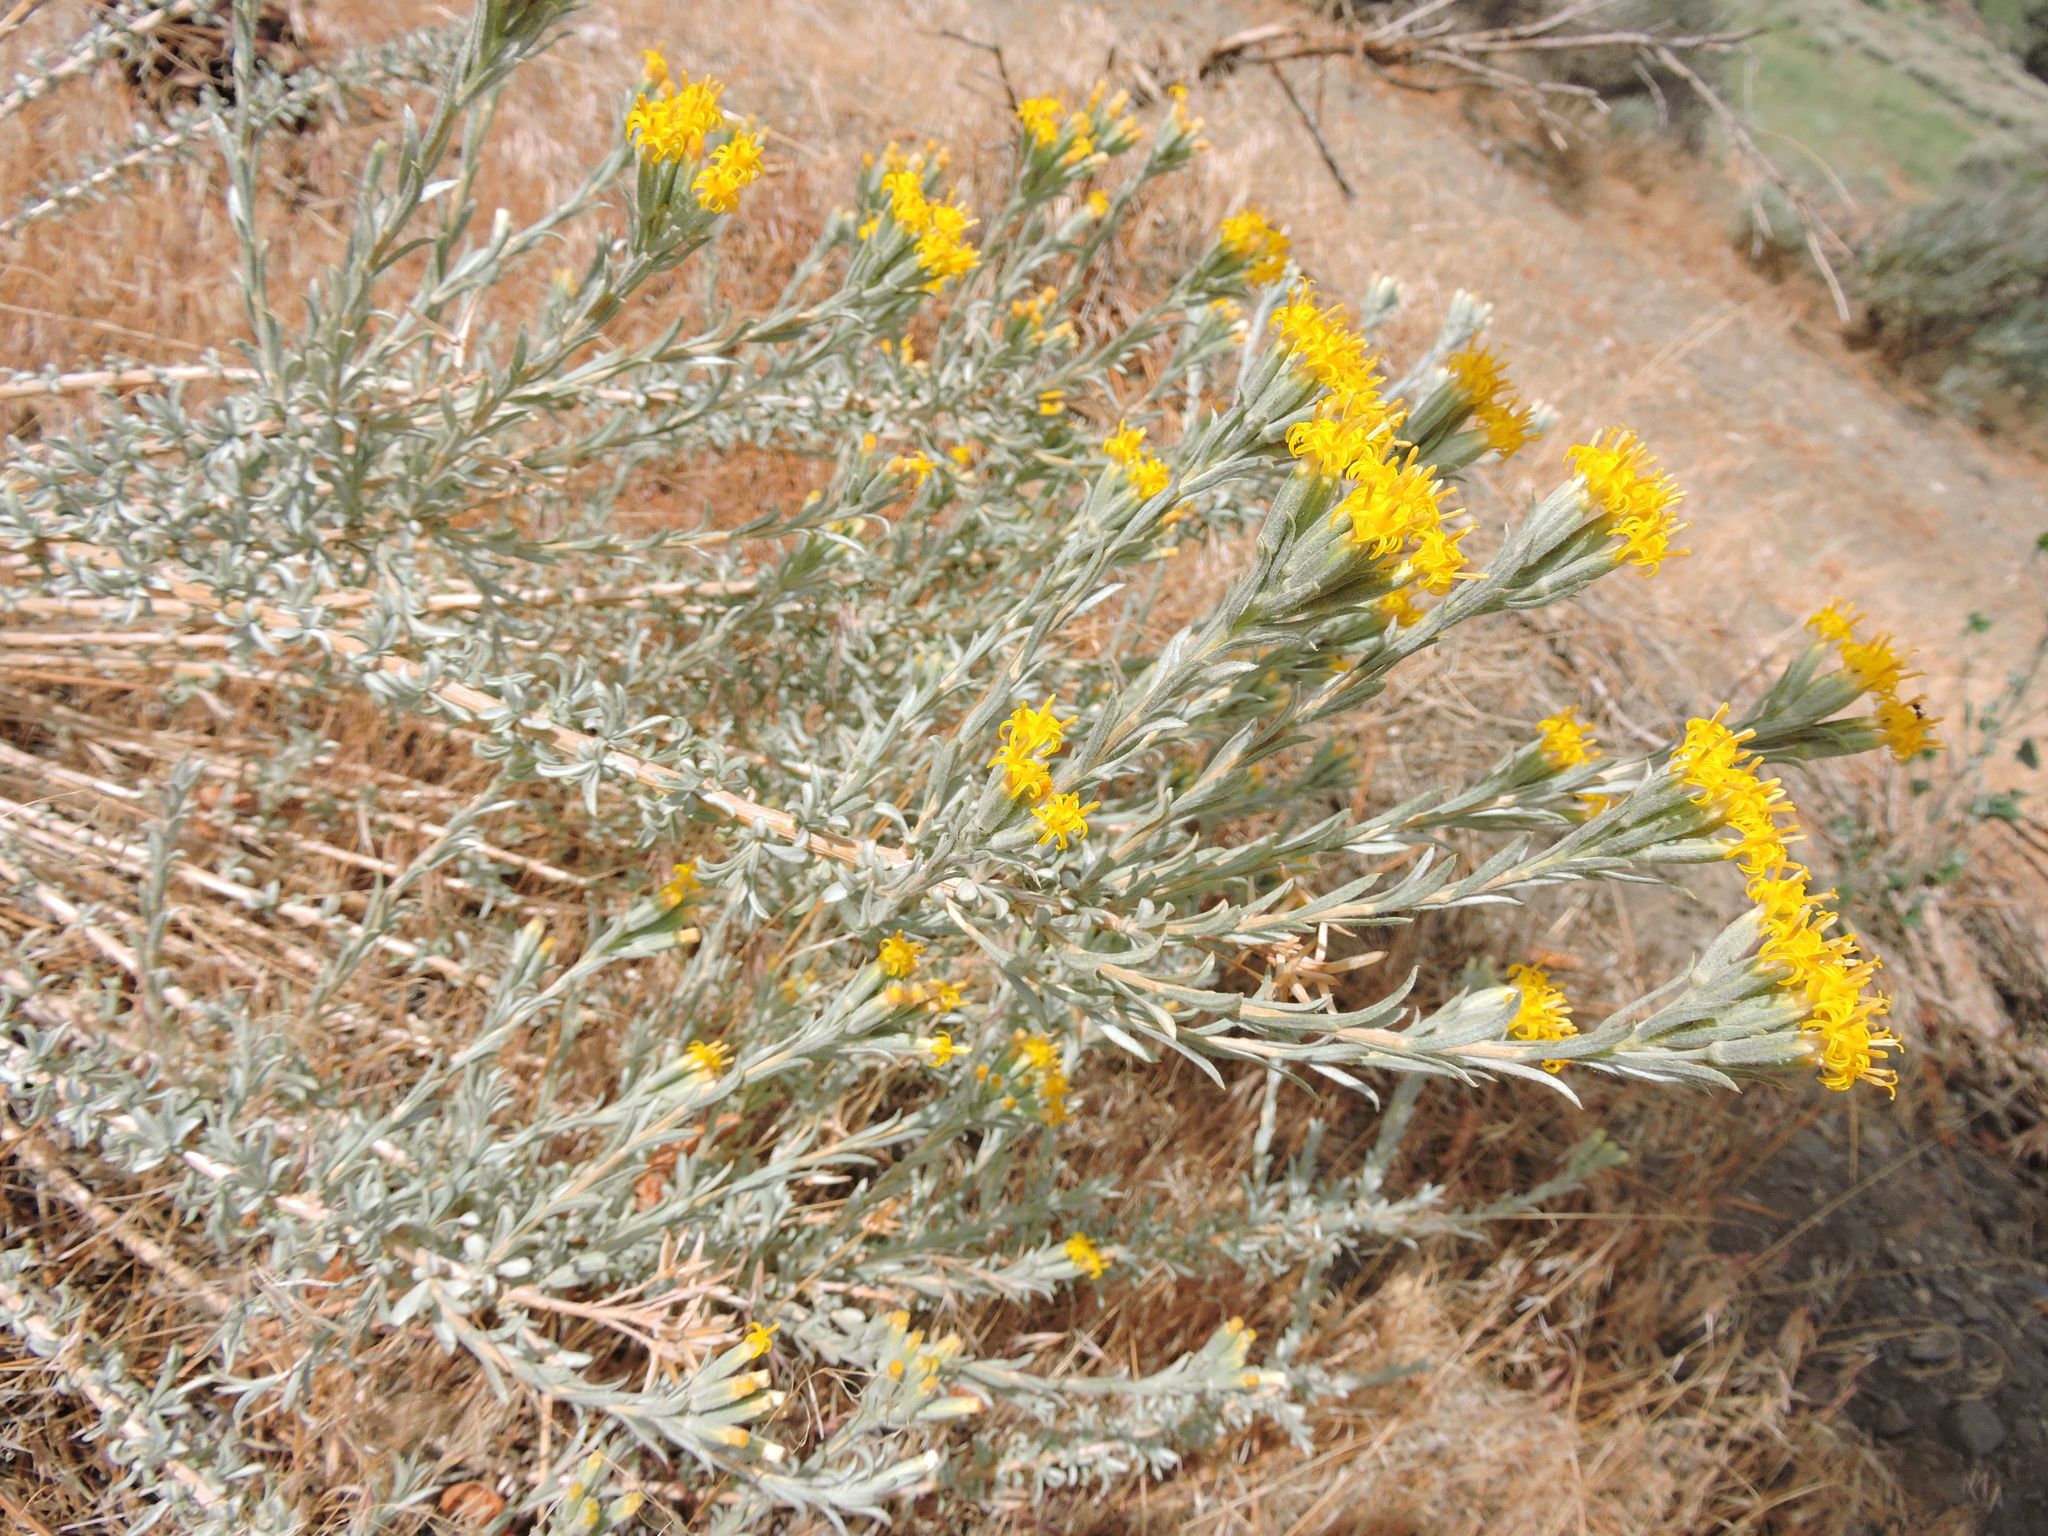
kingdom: Plantae
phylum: Tracheophyta
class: Magnoliopsida
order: Asterales
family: Asteraceae
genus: Tetradymia
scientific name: Tetradymia canescens
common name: Spineless horsebrush
